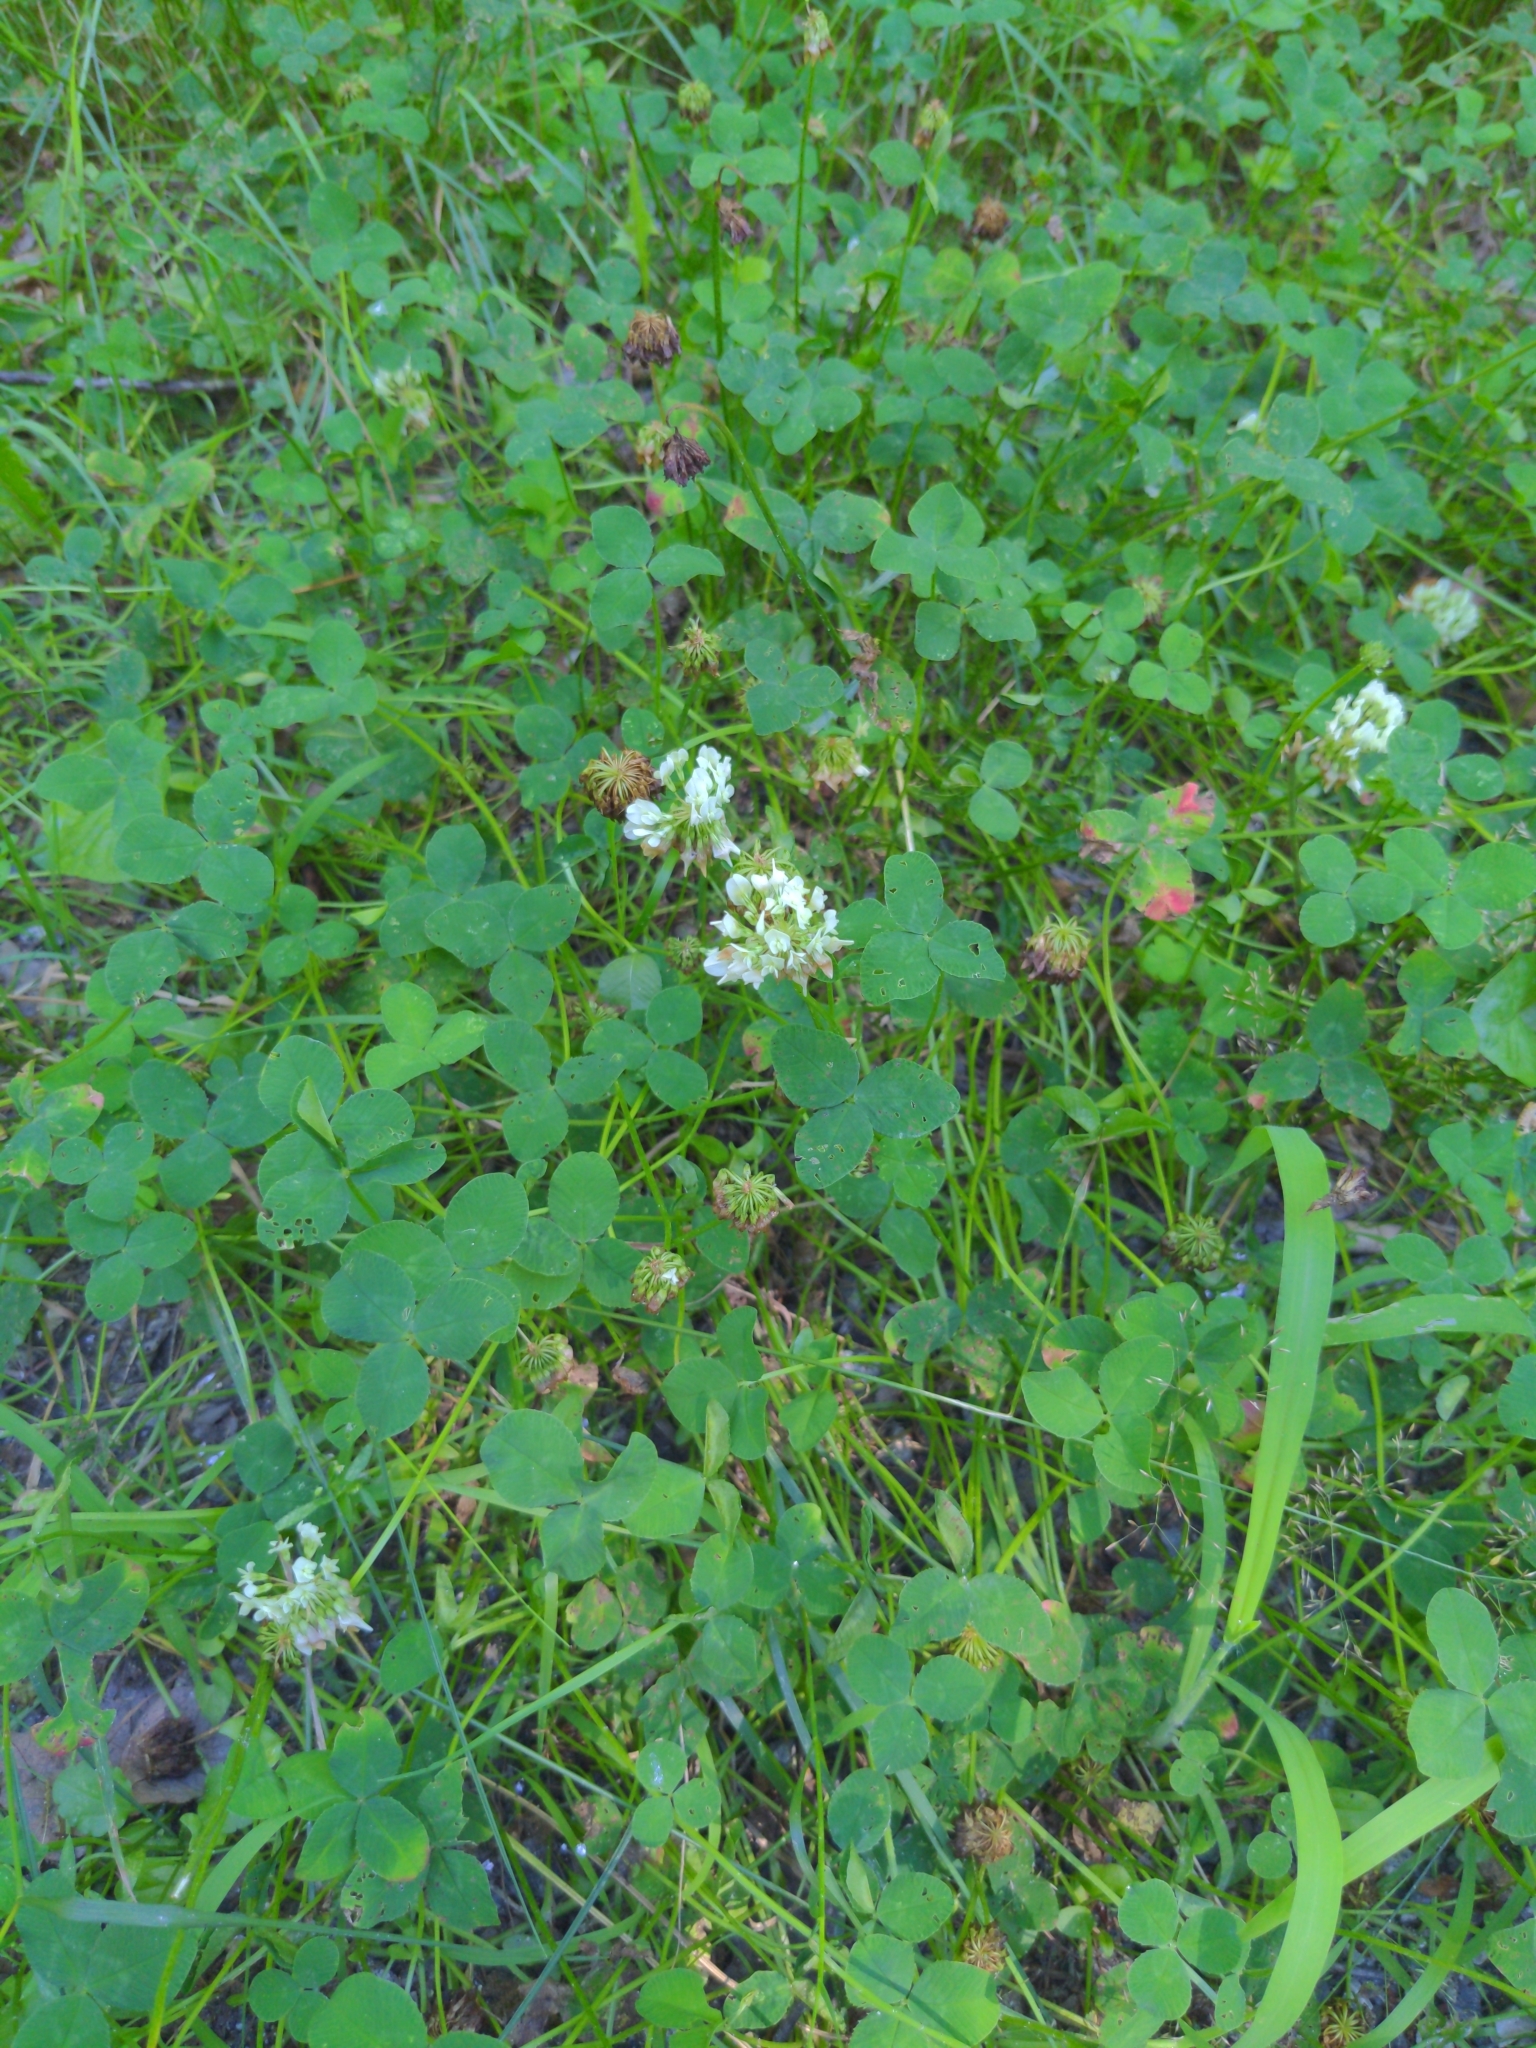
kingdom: Plantae
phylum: Tracheophyta
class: Magnoliopsida
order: Fabales
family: Fabaceae
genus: Trifolium
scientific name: Trifolium repens
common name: White clover
